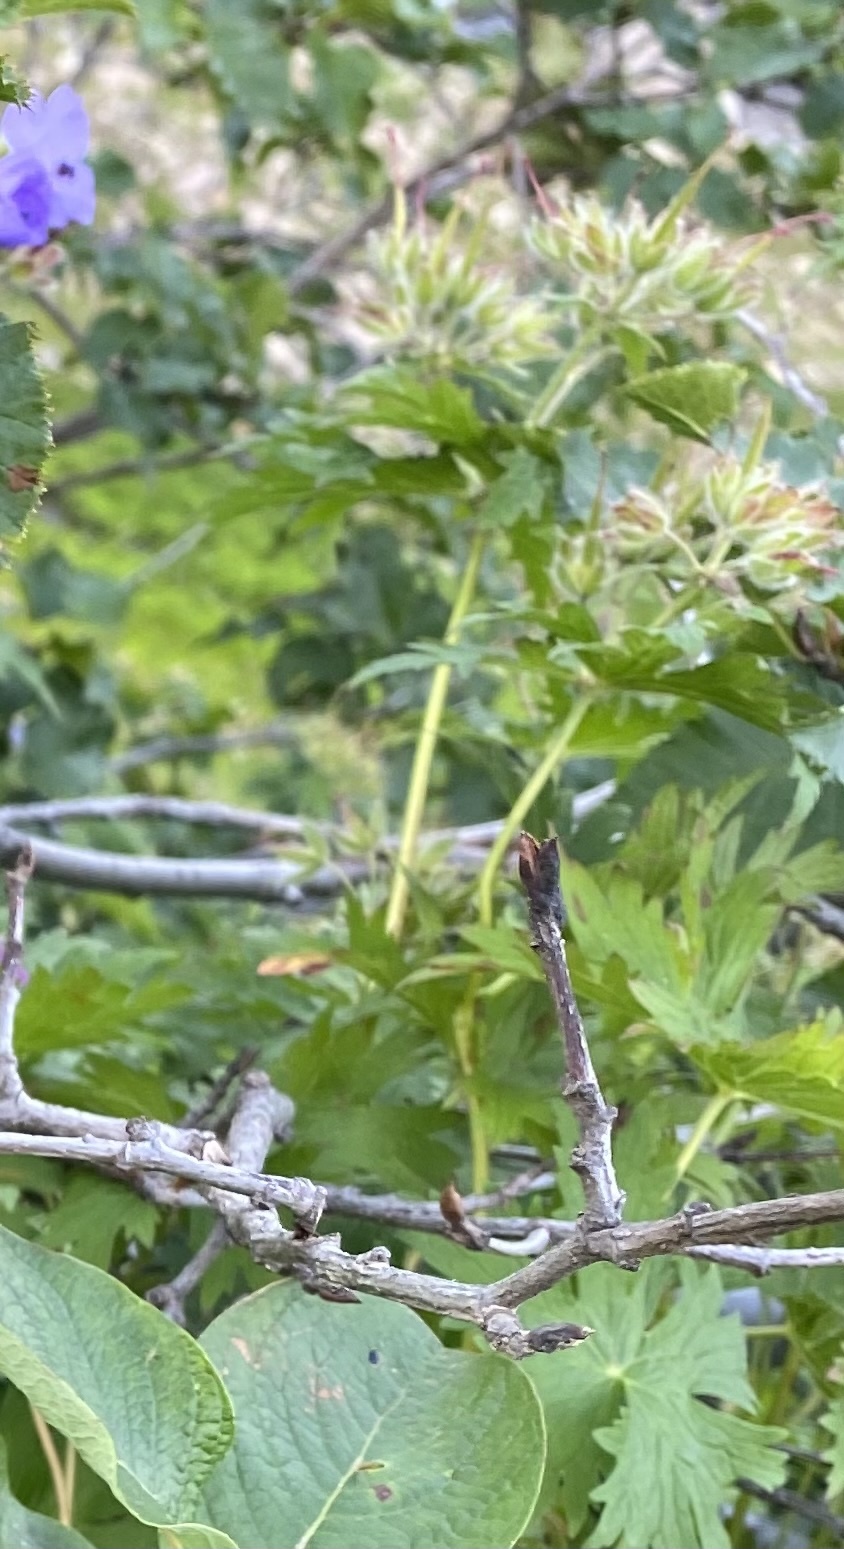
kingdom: Plantae
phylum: Tracheophyta
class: Magnoliopsida
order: Fagales
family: Betulaceae
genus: Alnus
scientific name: Alnus alnobetula
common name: Green alder
